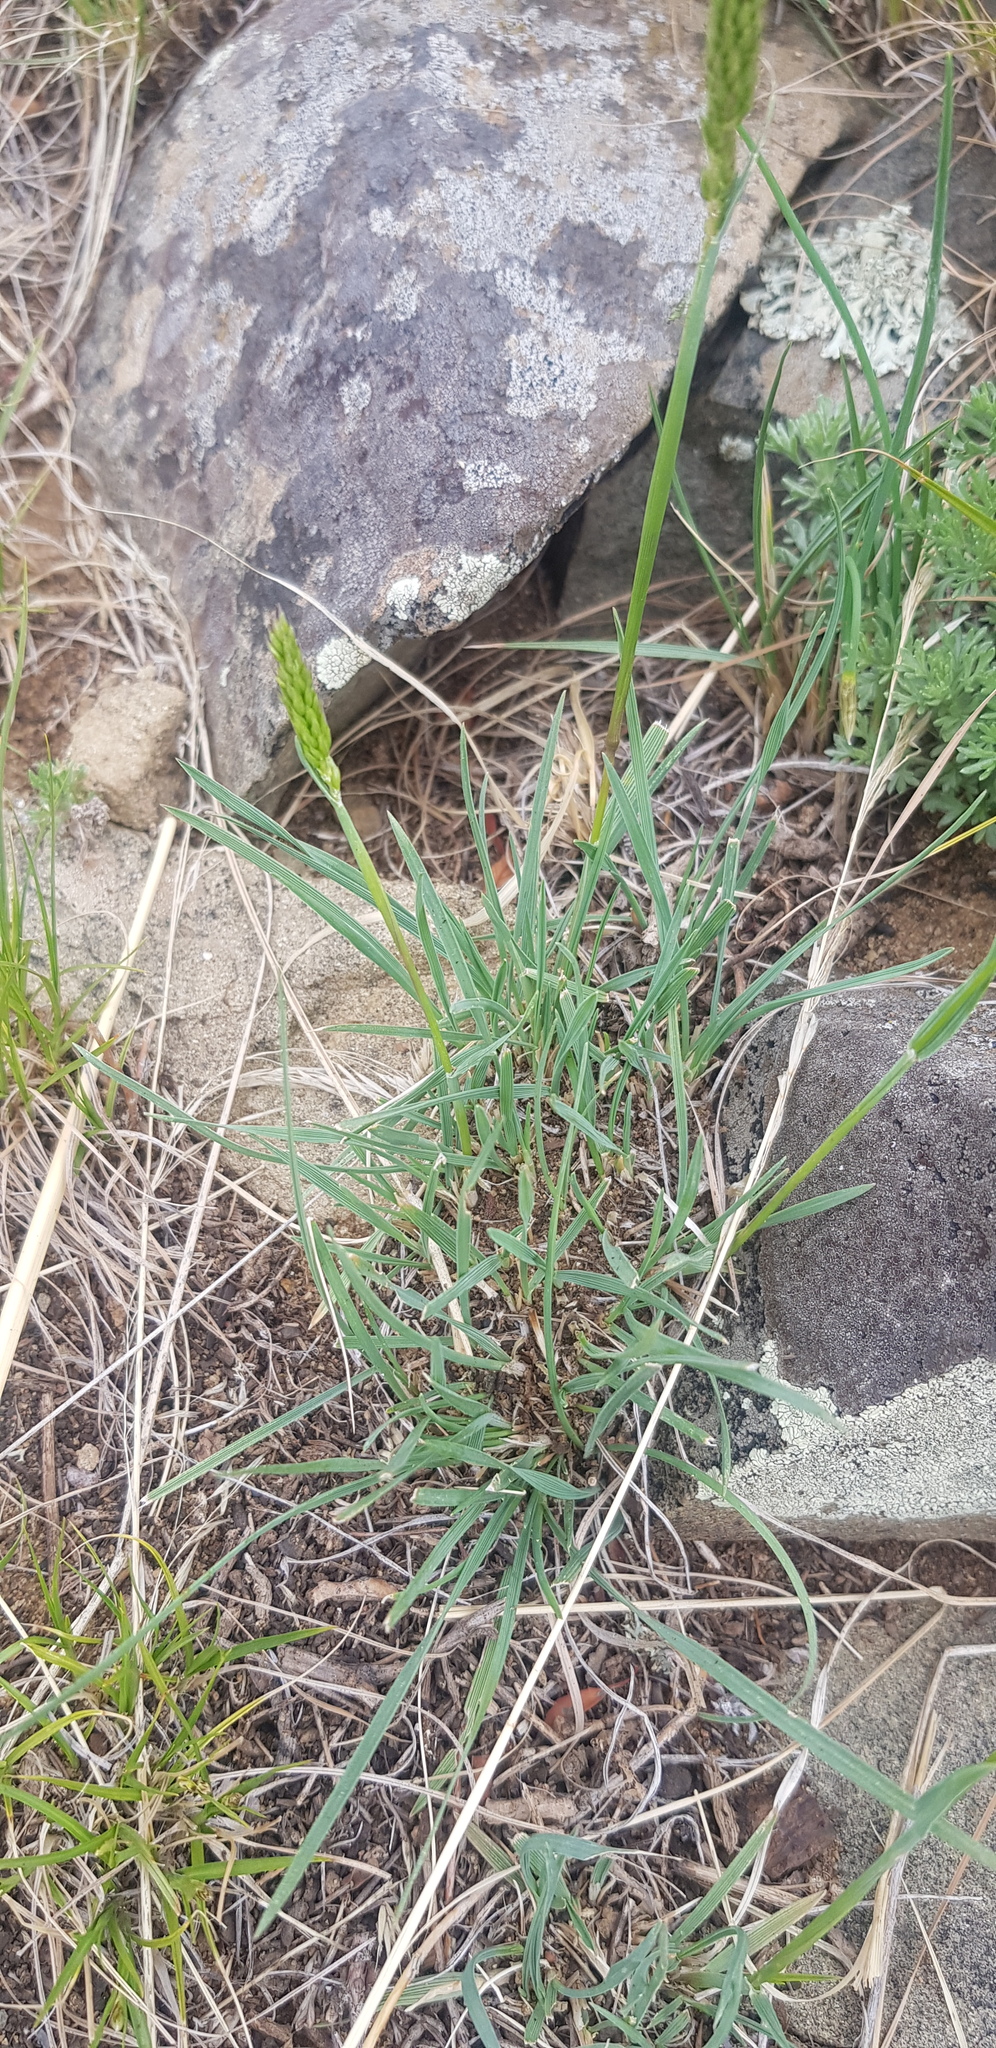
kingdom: Plantae
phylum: Tracheophyta
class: Liliopsida
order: Poales
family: Poaceae
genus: Koeleria
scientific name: Koeleria macrantha
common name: Crested hair-grass
